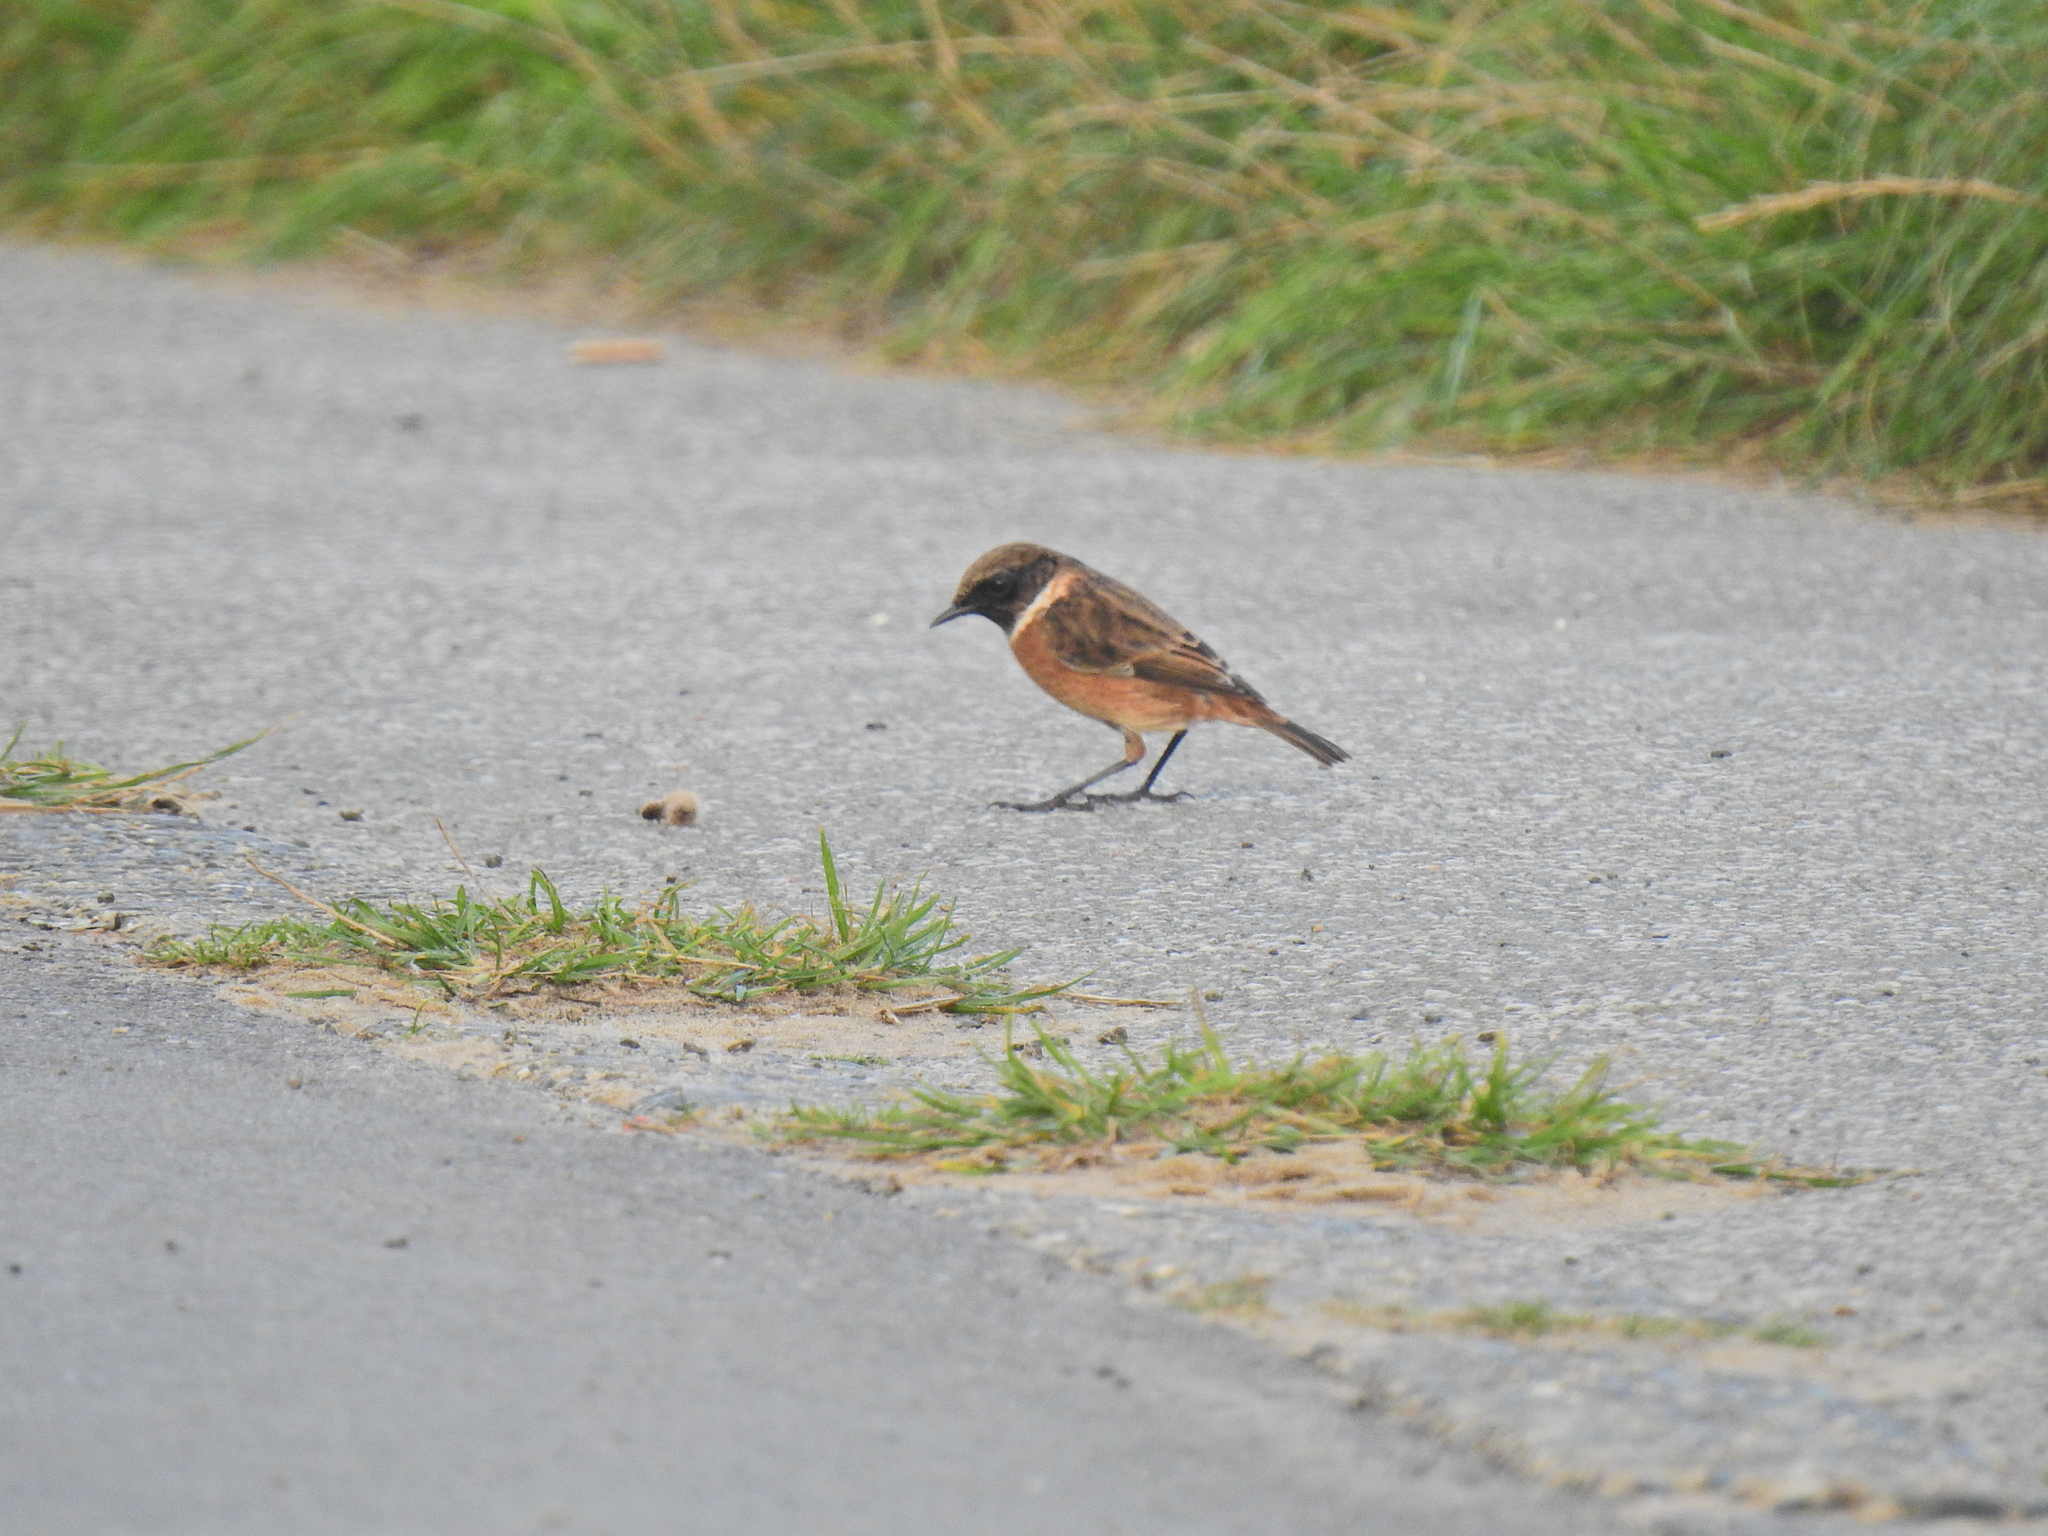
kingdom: Animalia
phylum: Chordata
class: Aves
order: Passeriformes
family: Muscicapidae
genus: Saxicola
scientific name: Saxicola rubicola
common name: European stonechat
